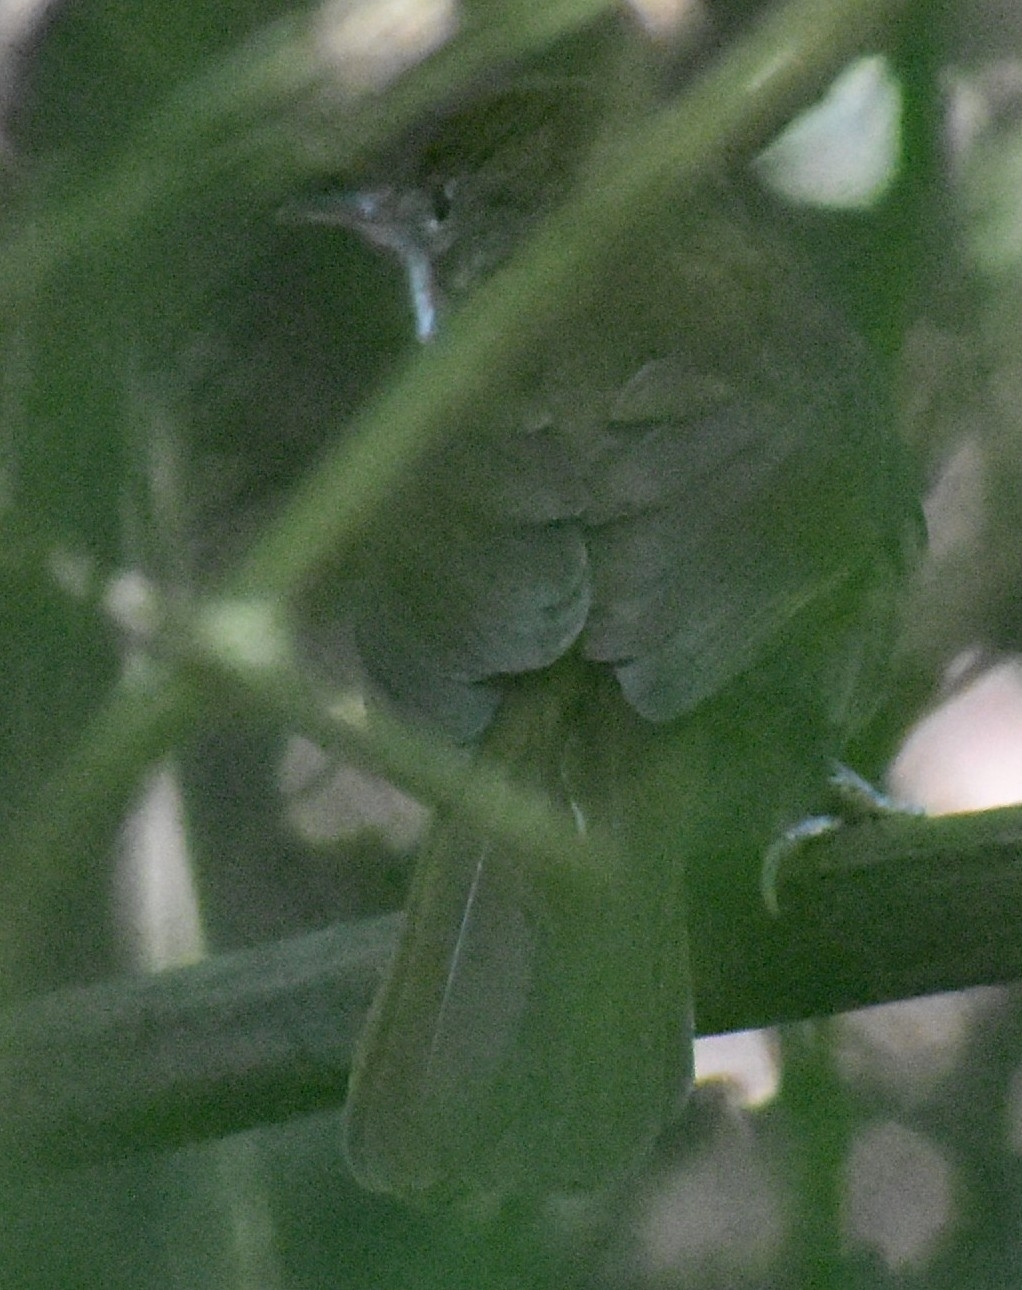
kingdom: Animalia
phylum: Chordata
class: Aves
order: Passeriformes
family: Pycnonotidae
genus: Phyllastrephus
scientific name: Phyllastrephus terrestris
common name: Terrestrial brownbul
